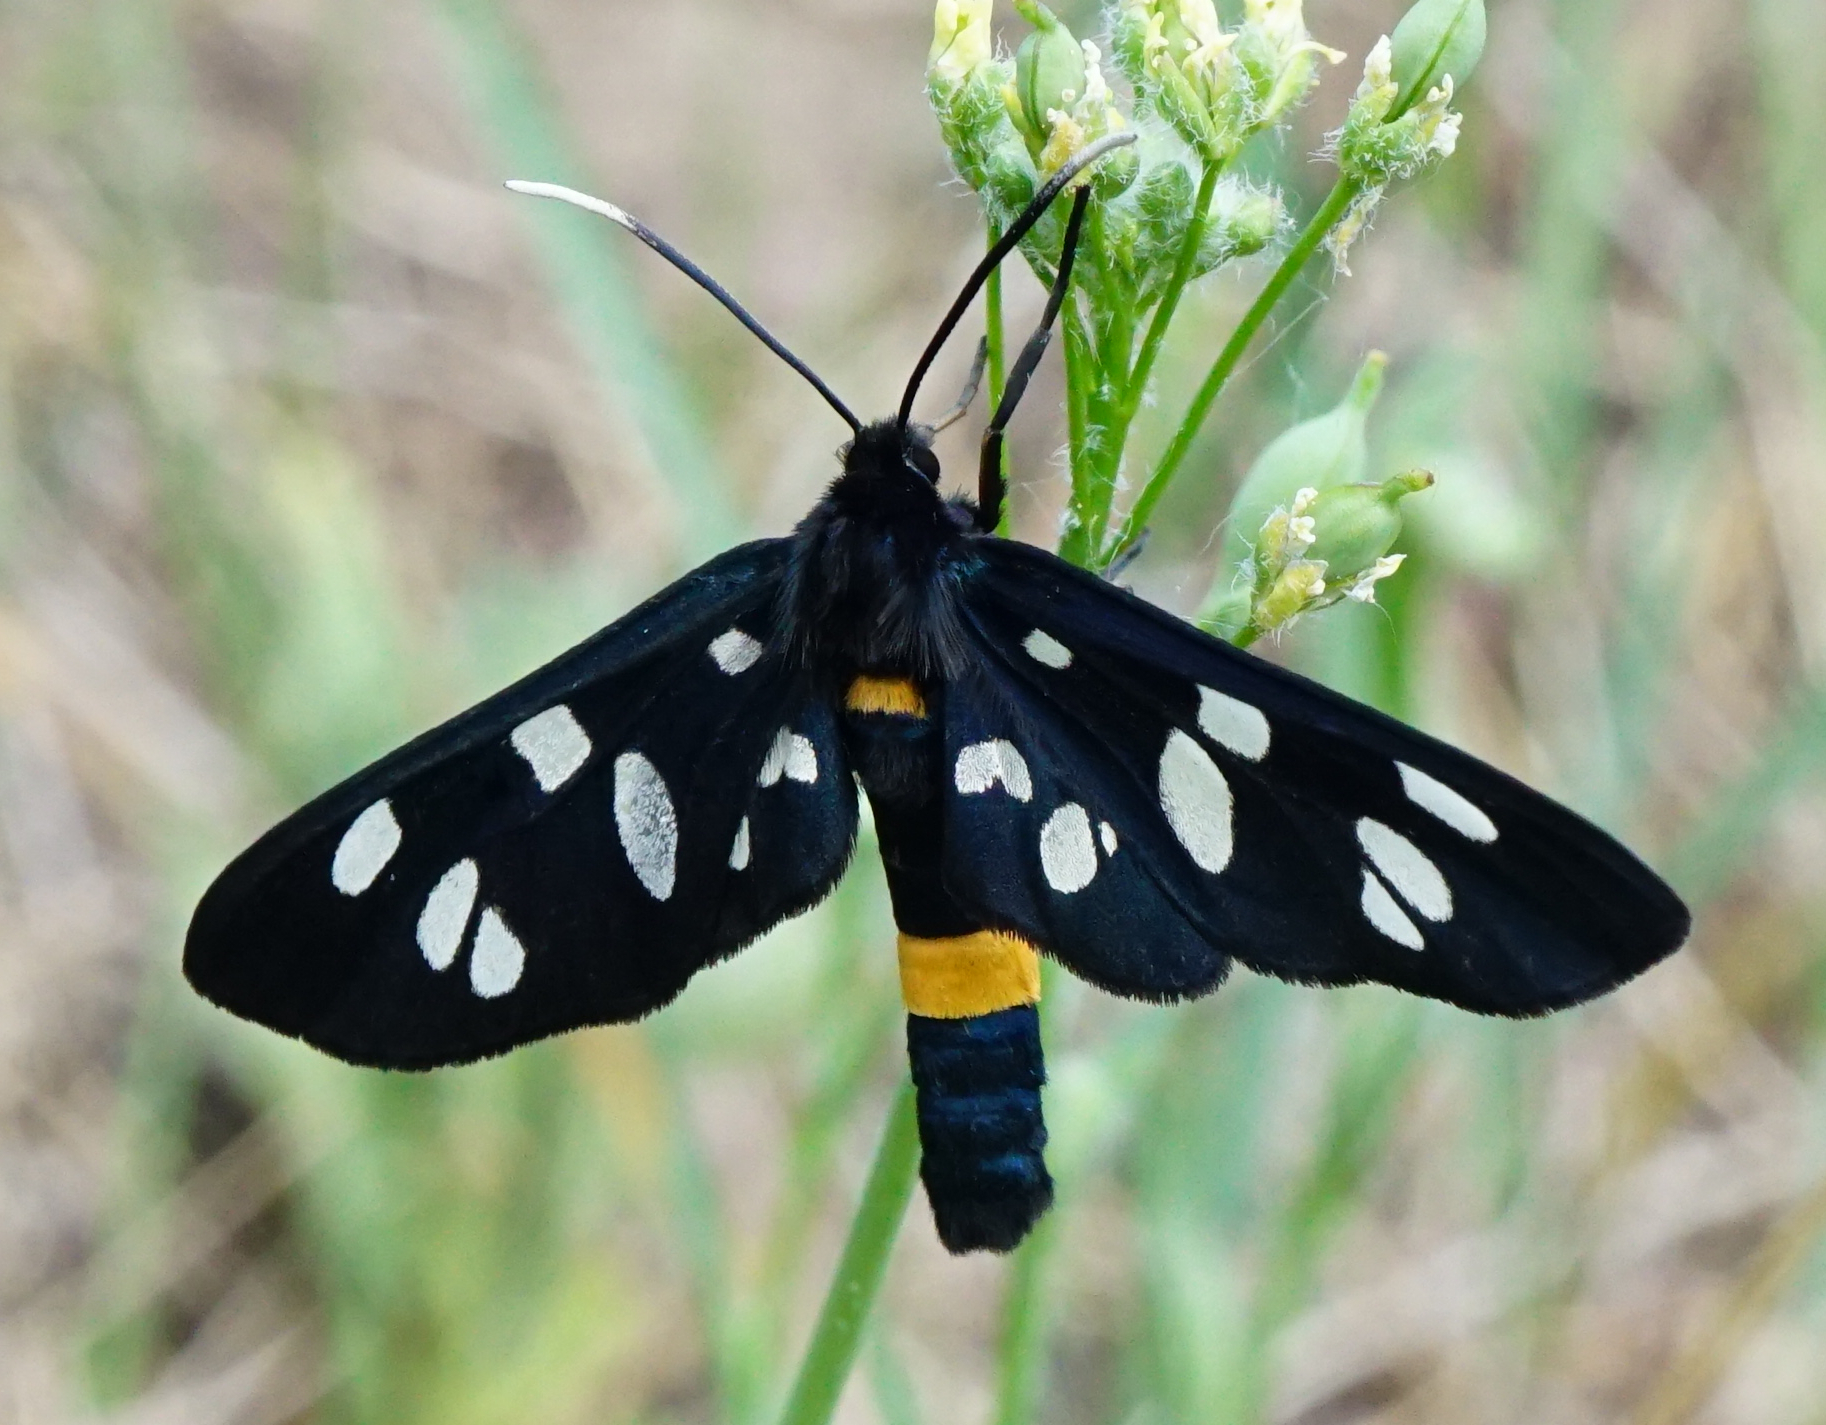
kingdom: Animalia
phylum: Arthropoda
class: Insecta
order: Lepidoptera
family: Erebidae
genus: Amata
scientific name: Amata phegea
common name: Nine-spotted
